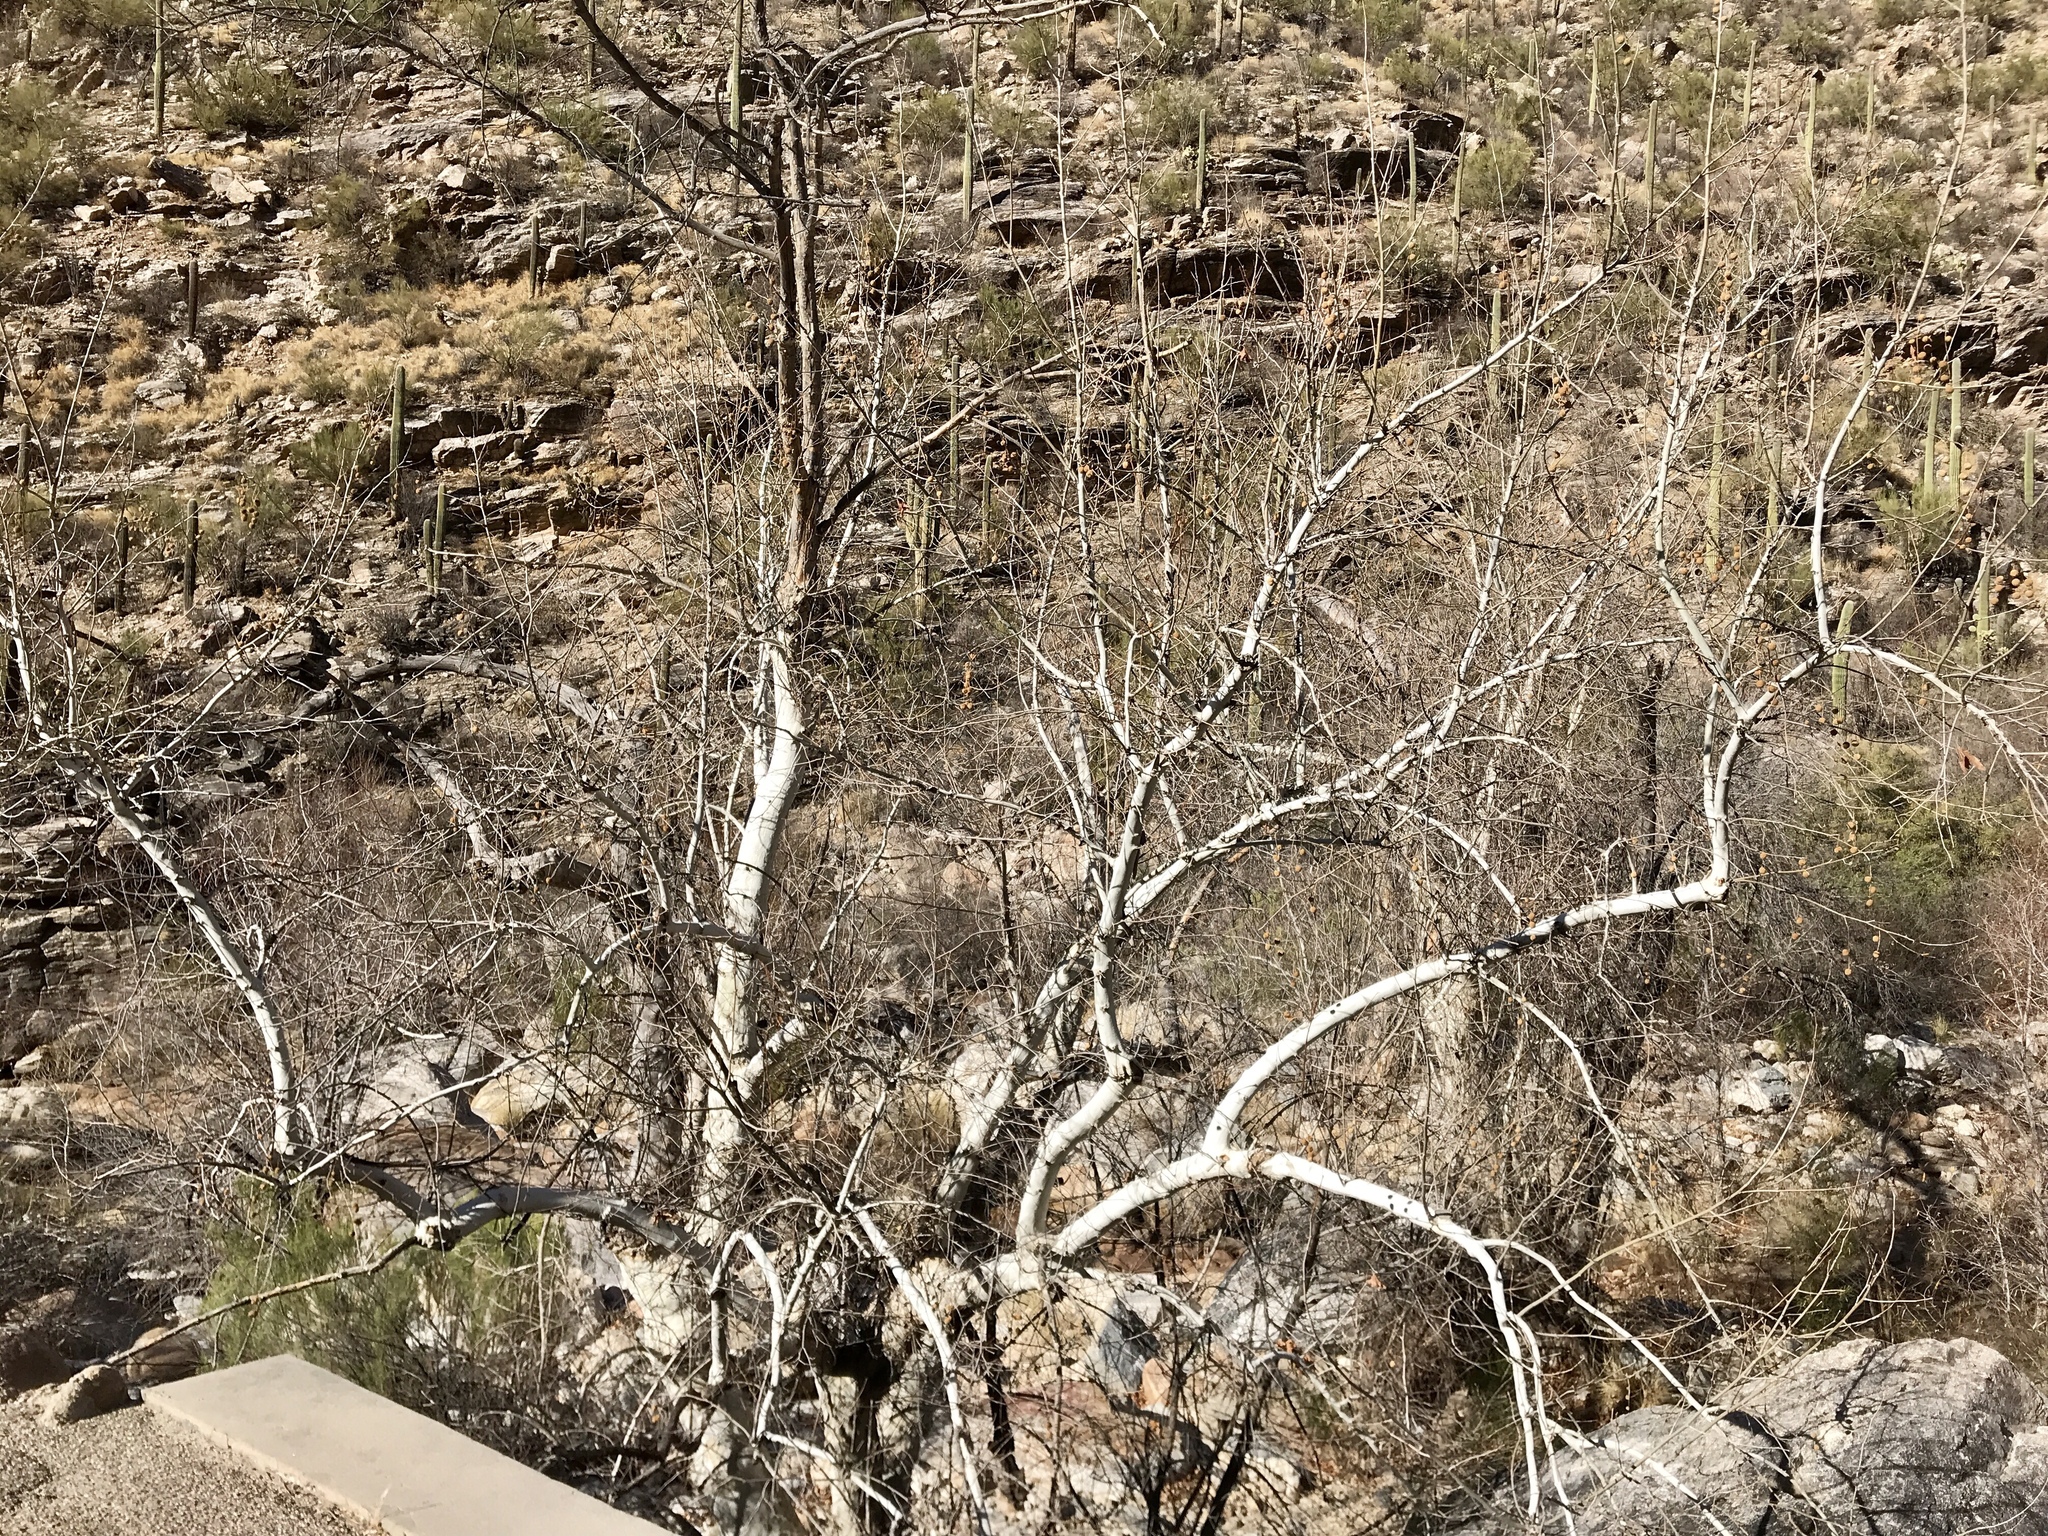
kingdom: Plantae
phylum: Tracheophyta
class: Magnoliopsida
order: Proteales
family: Platanaceae
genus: Platanus
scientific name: Platanus wrightii
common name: Arizona sycamore
